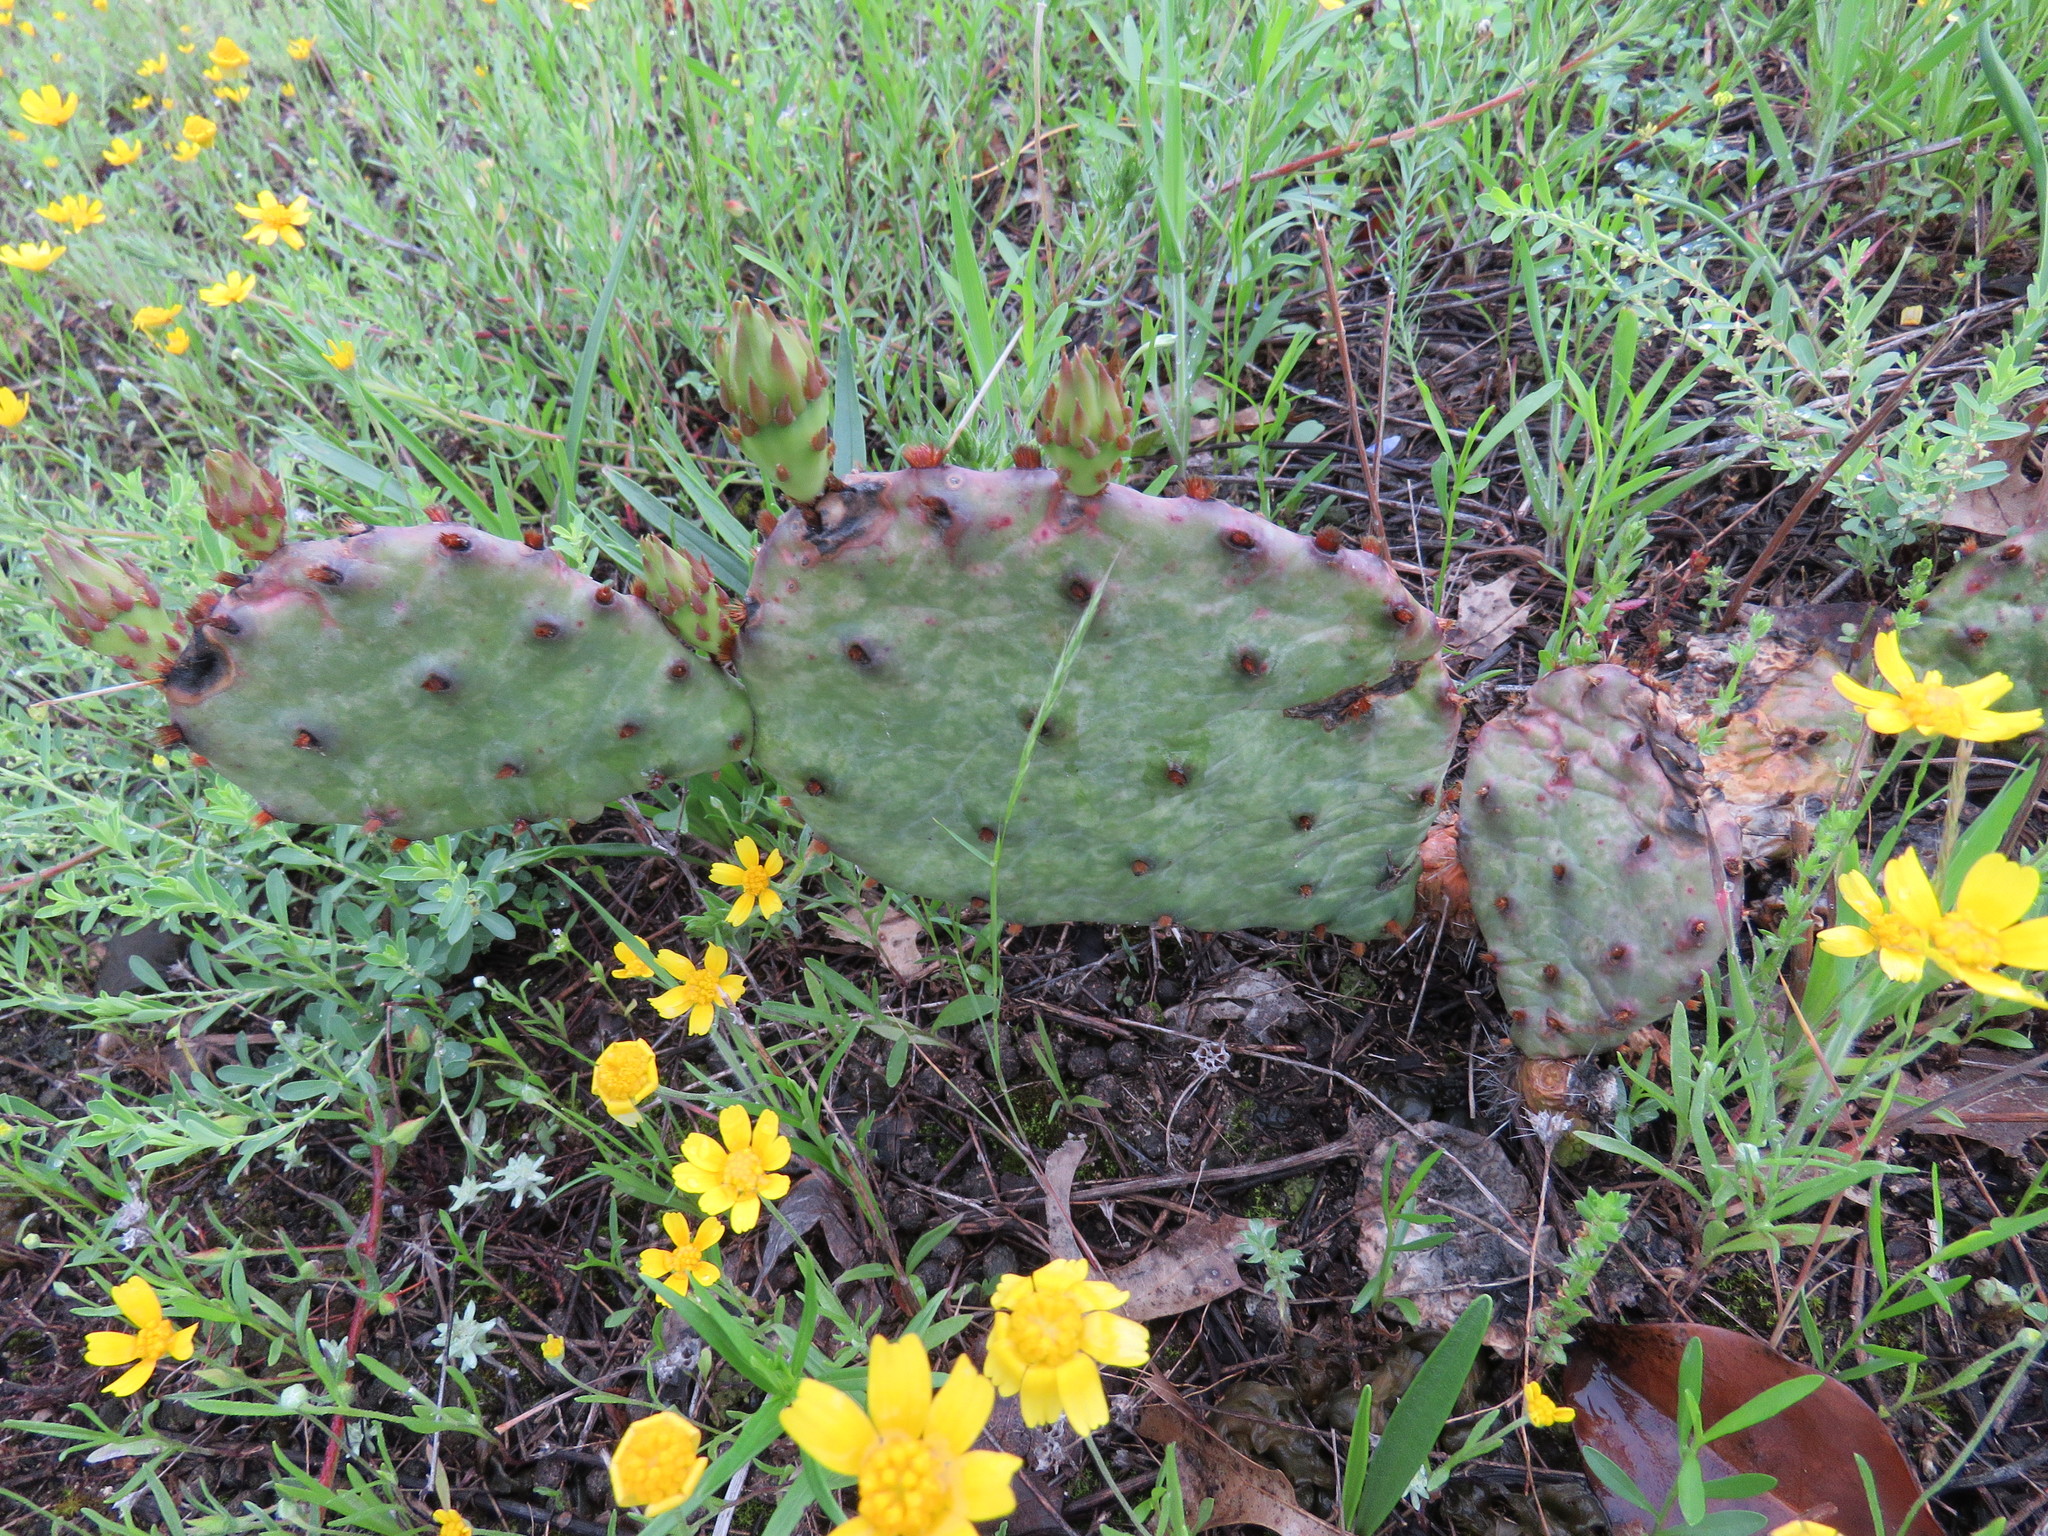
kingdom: Plantae
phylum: Tracheophyta
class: Magnoliopsida
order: Caryophyllales
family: Cactaceae
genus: Opuntia
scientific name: Opuntia macrorhiza
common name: Grassland pricklypear
